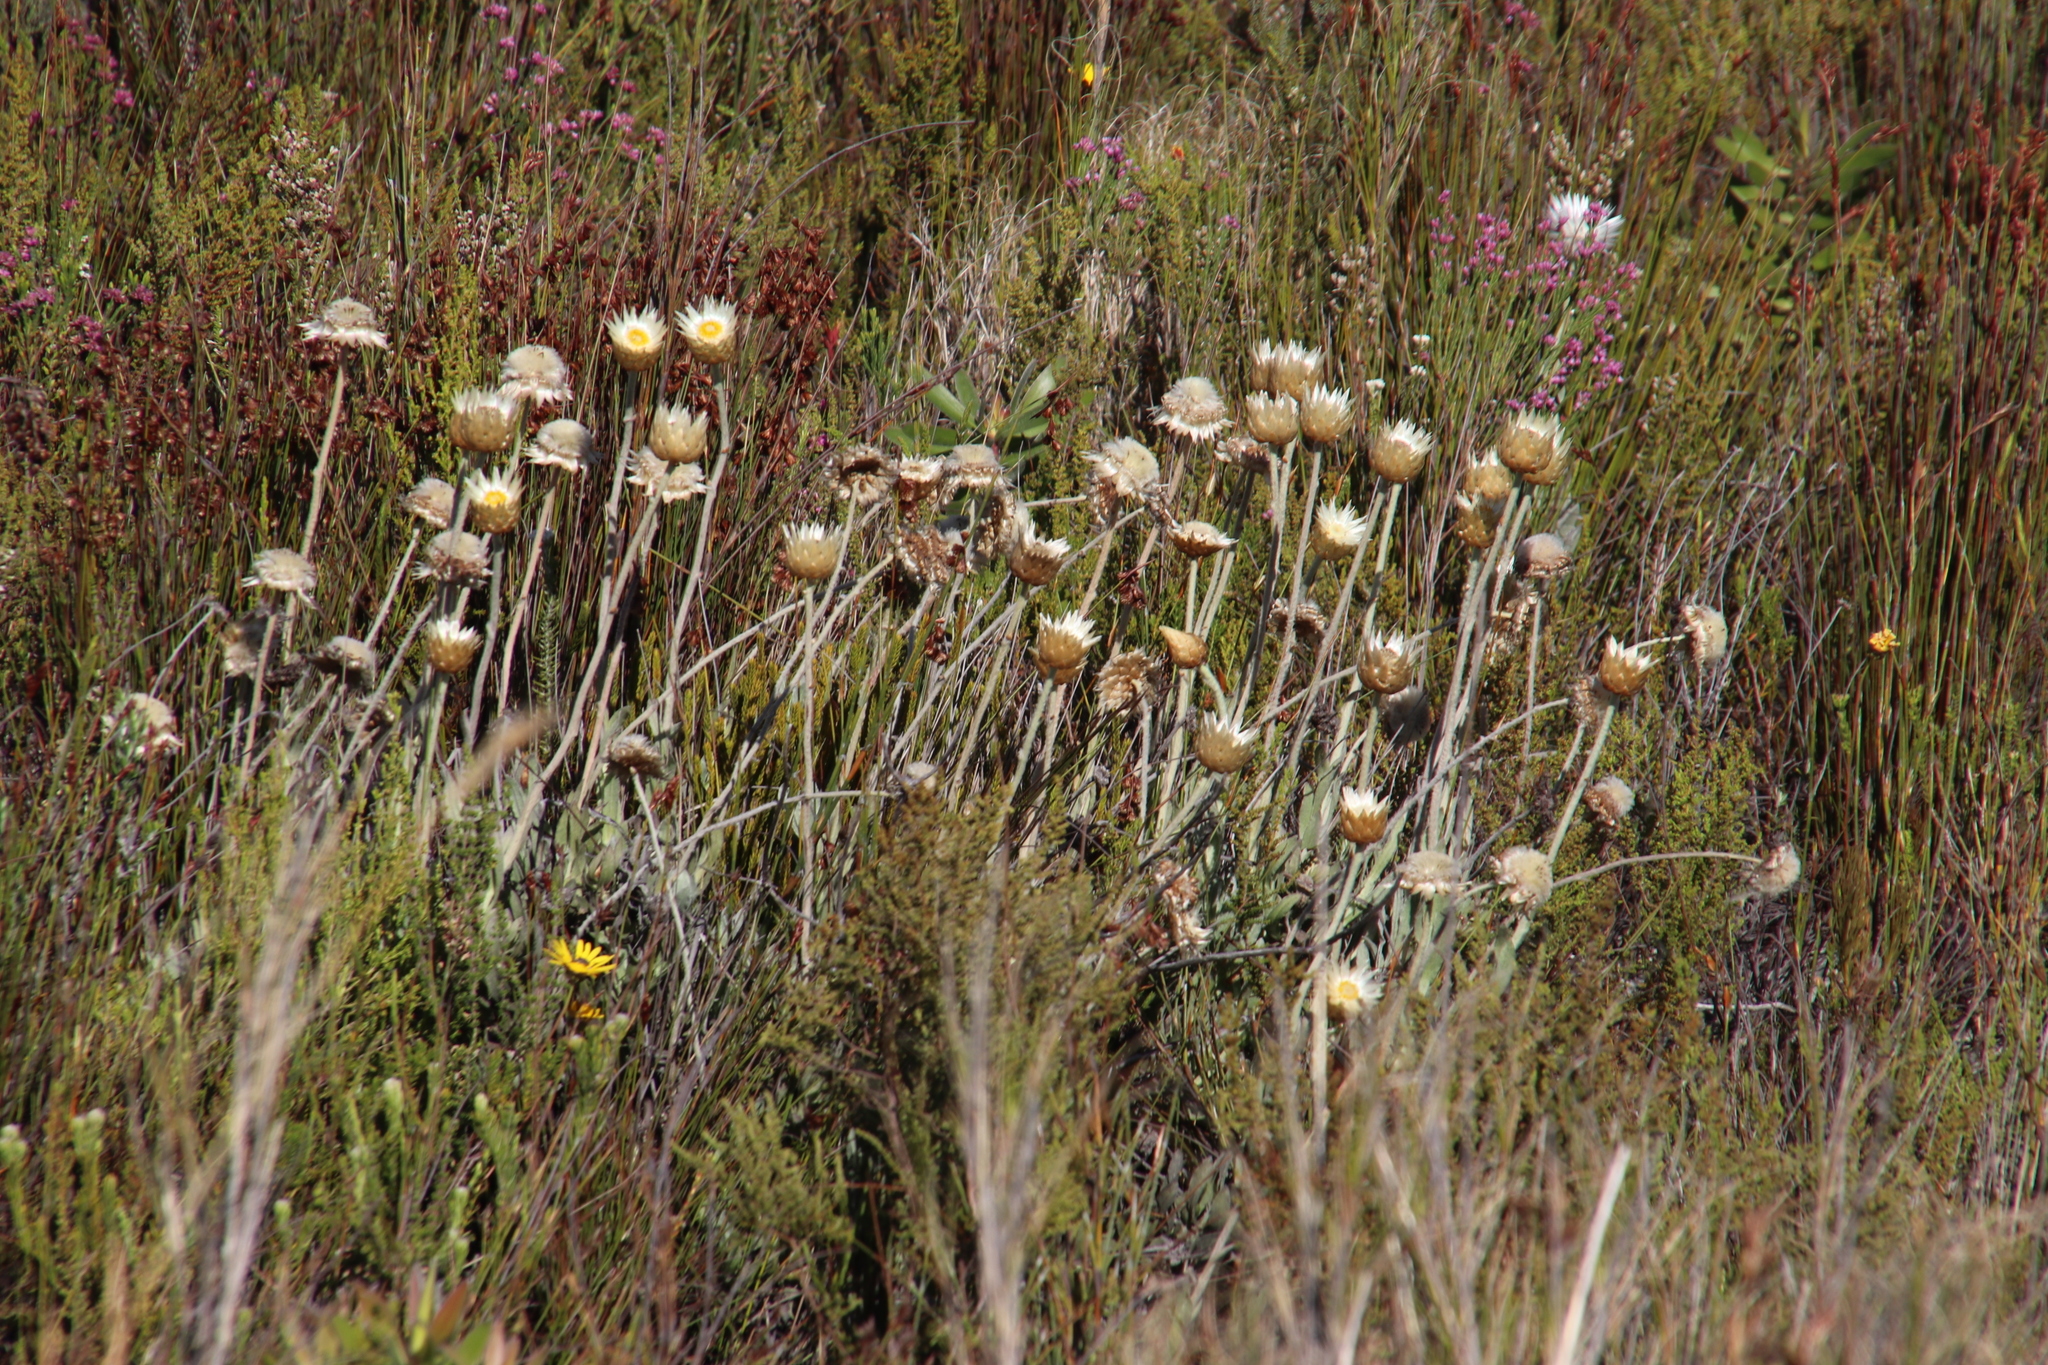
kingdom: Plantae
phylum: Tracheophyta
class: Magnoliopsida
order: Asterales
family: Asteraceae
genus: Syncarpha
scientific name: Syncarpha speciosissima
